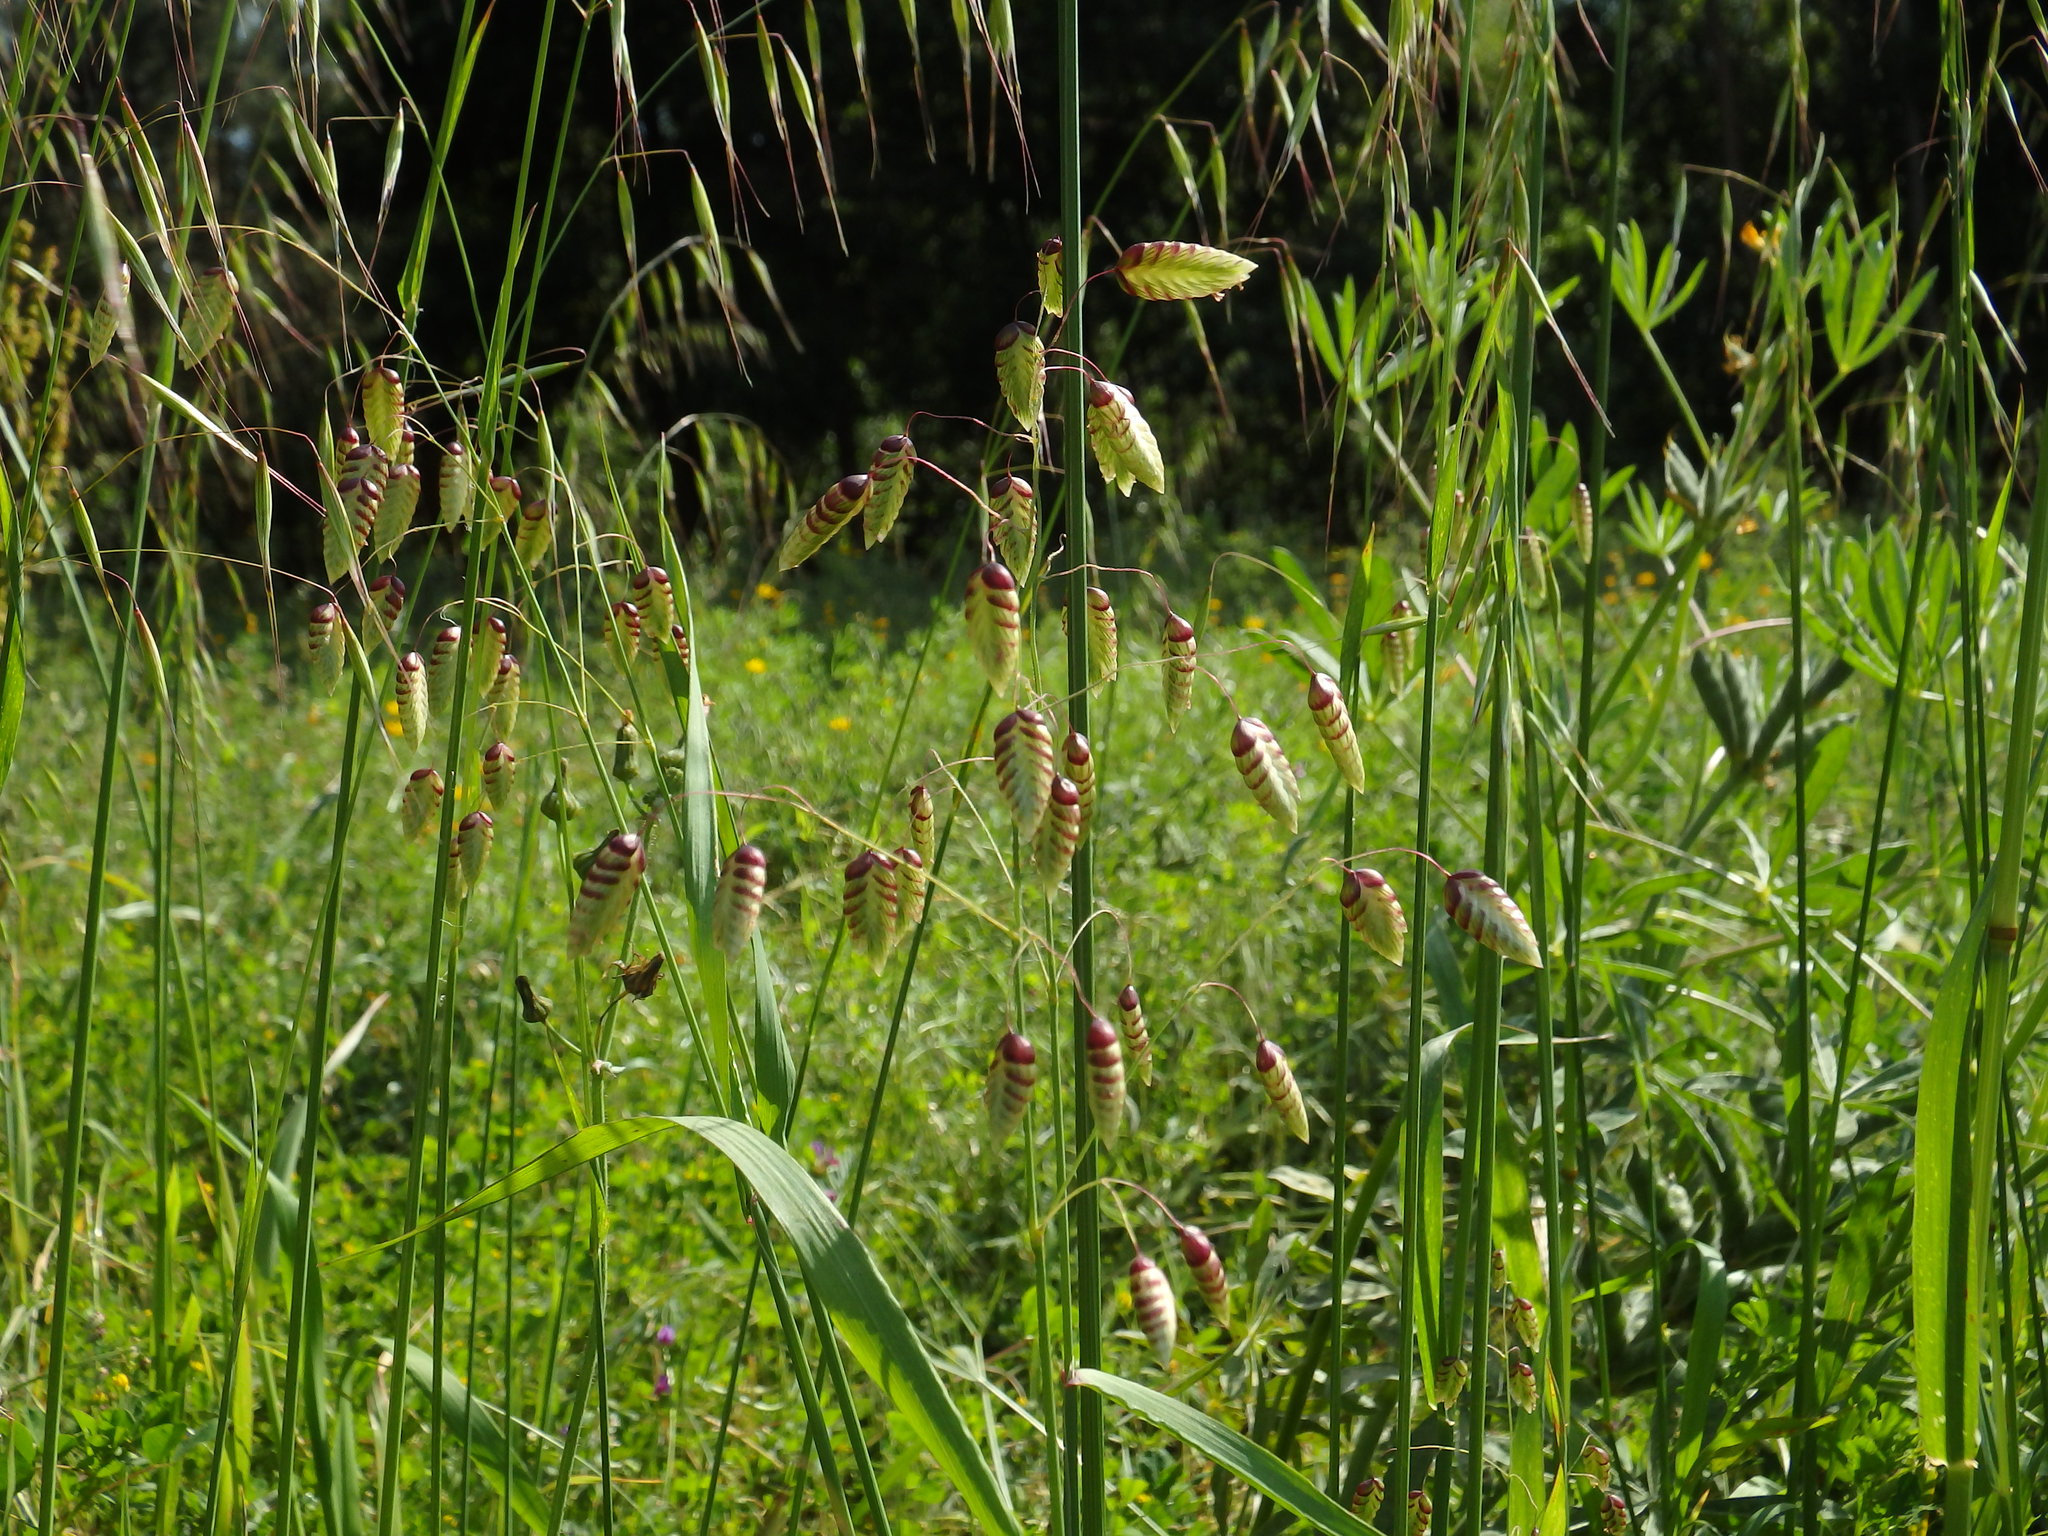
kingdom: Plantae
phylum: Tracheophyta
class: Liliopsida
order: Poales
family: Poaceae
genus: Briza
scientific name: Briza maxima
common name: Big quakinggrass
